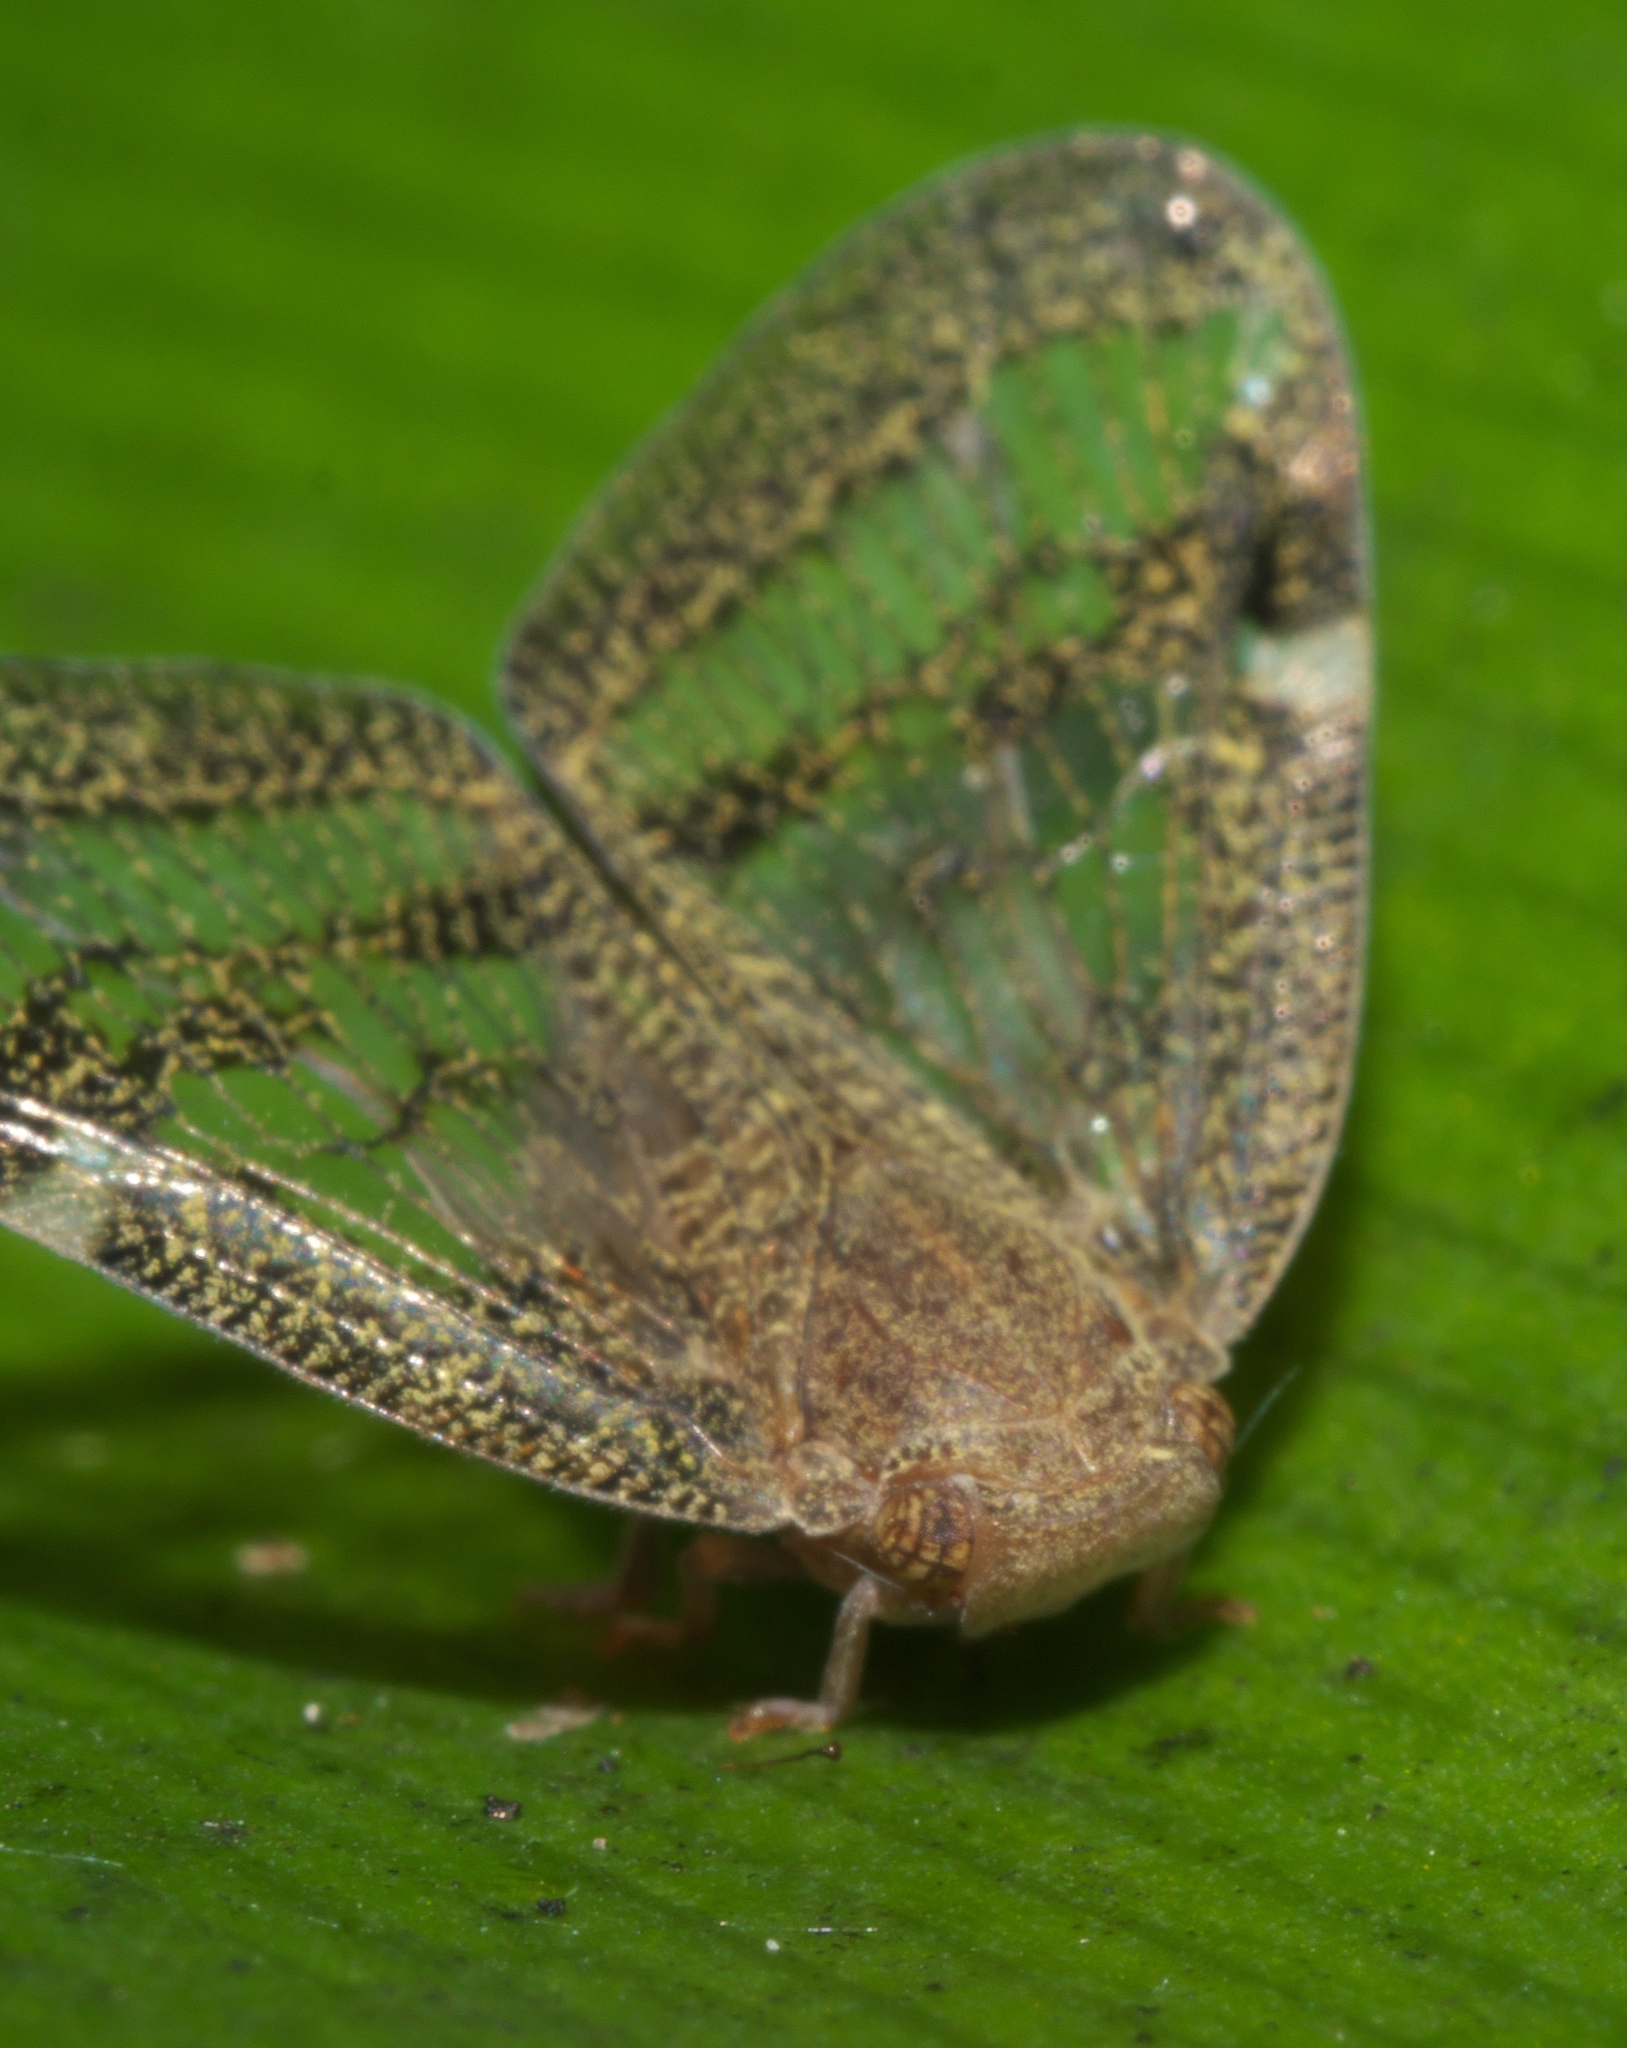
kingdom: Animalia
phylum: Arthropoda
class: Insecta
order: Hemiptera
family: Ricaniidae
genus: Scolypopa
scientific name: Scolypopa australis
